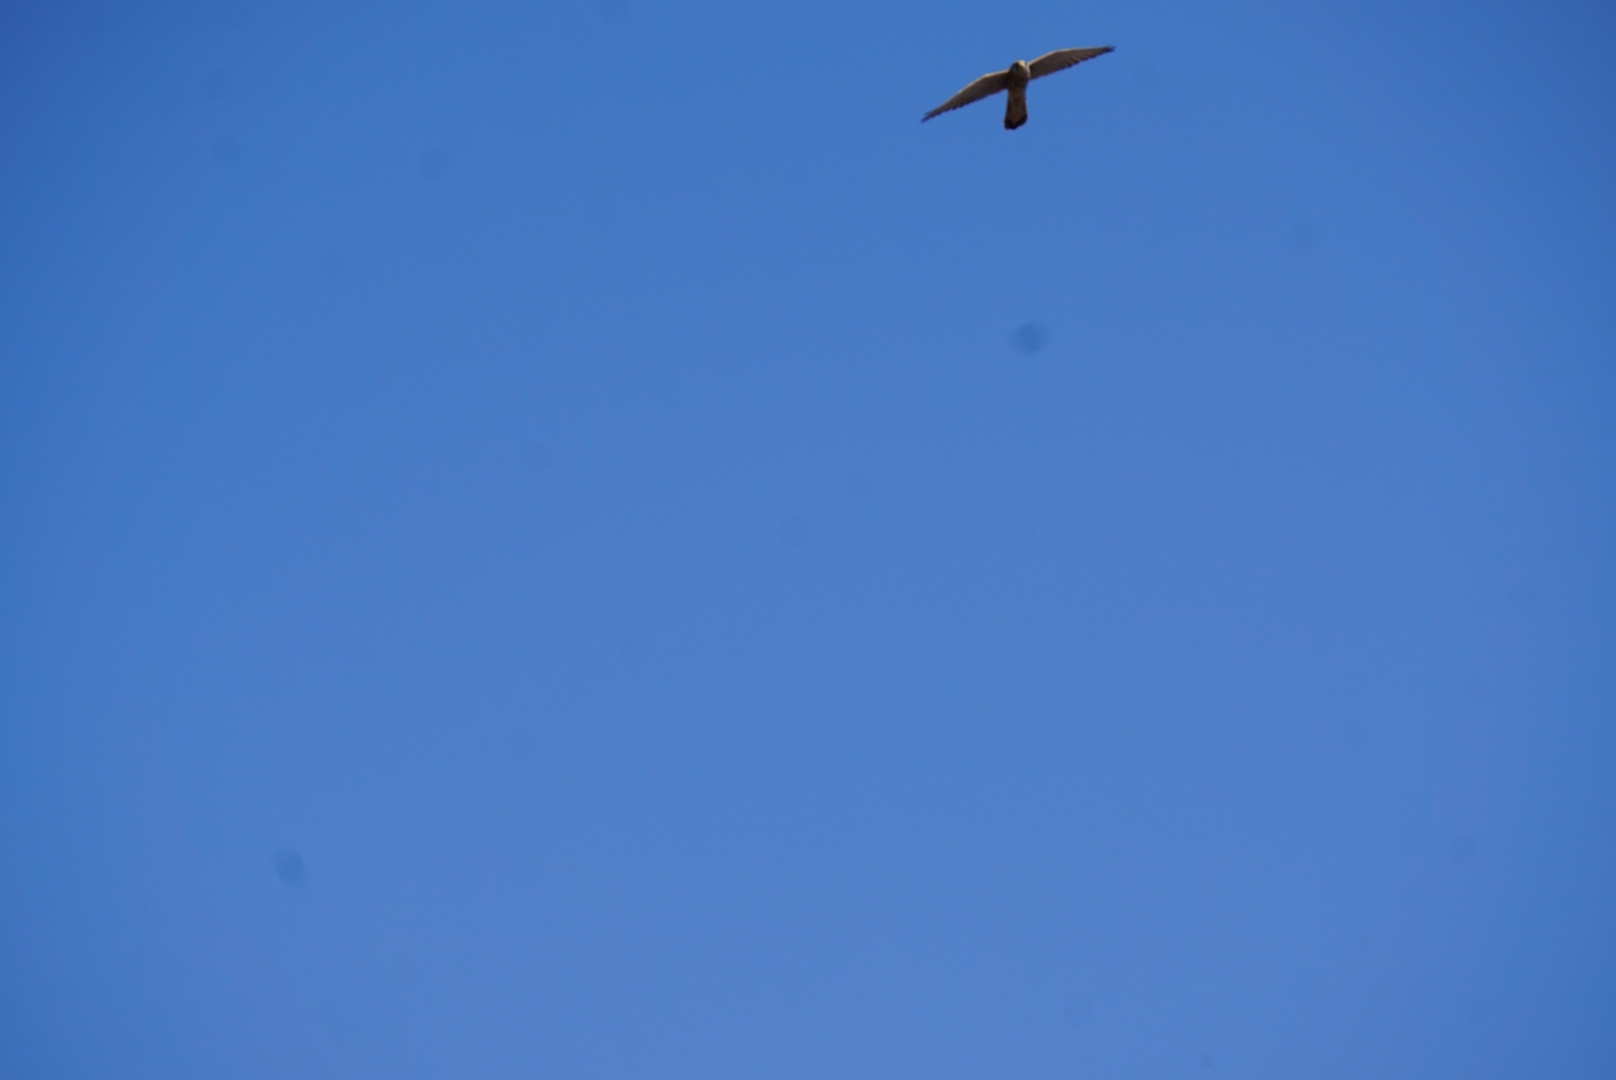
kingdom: Animalia
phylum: Chordata
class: Aves
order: Falconiformes
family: Falconidae
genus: Falco
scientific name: Falco tinnunculus
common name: Common kestrel
